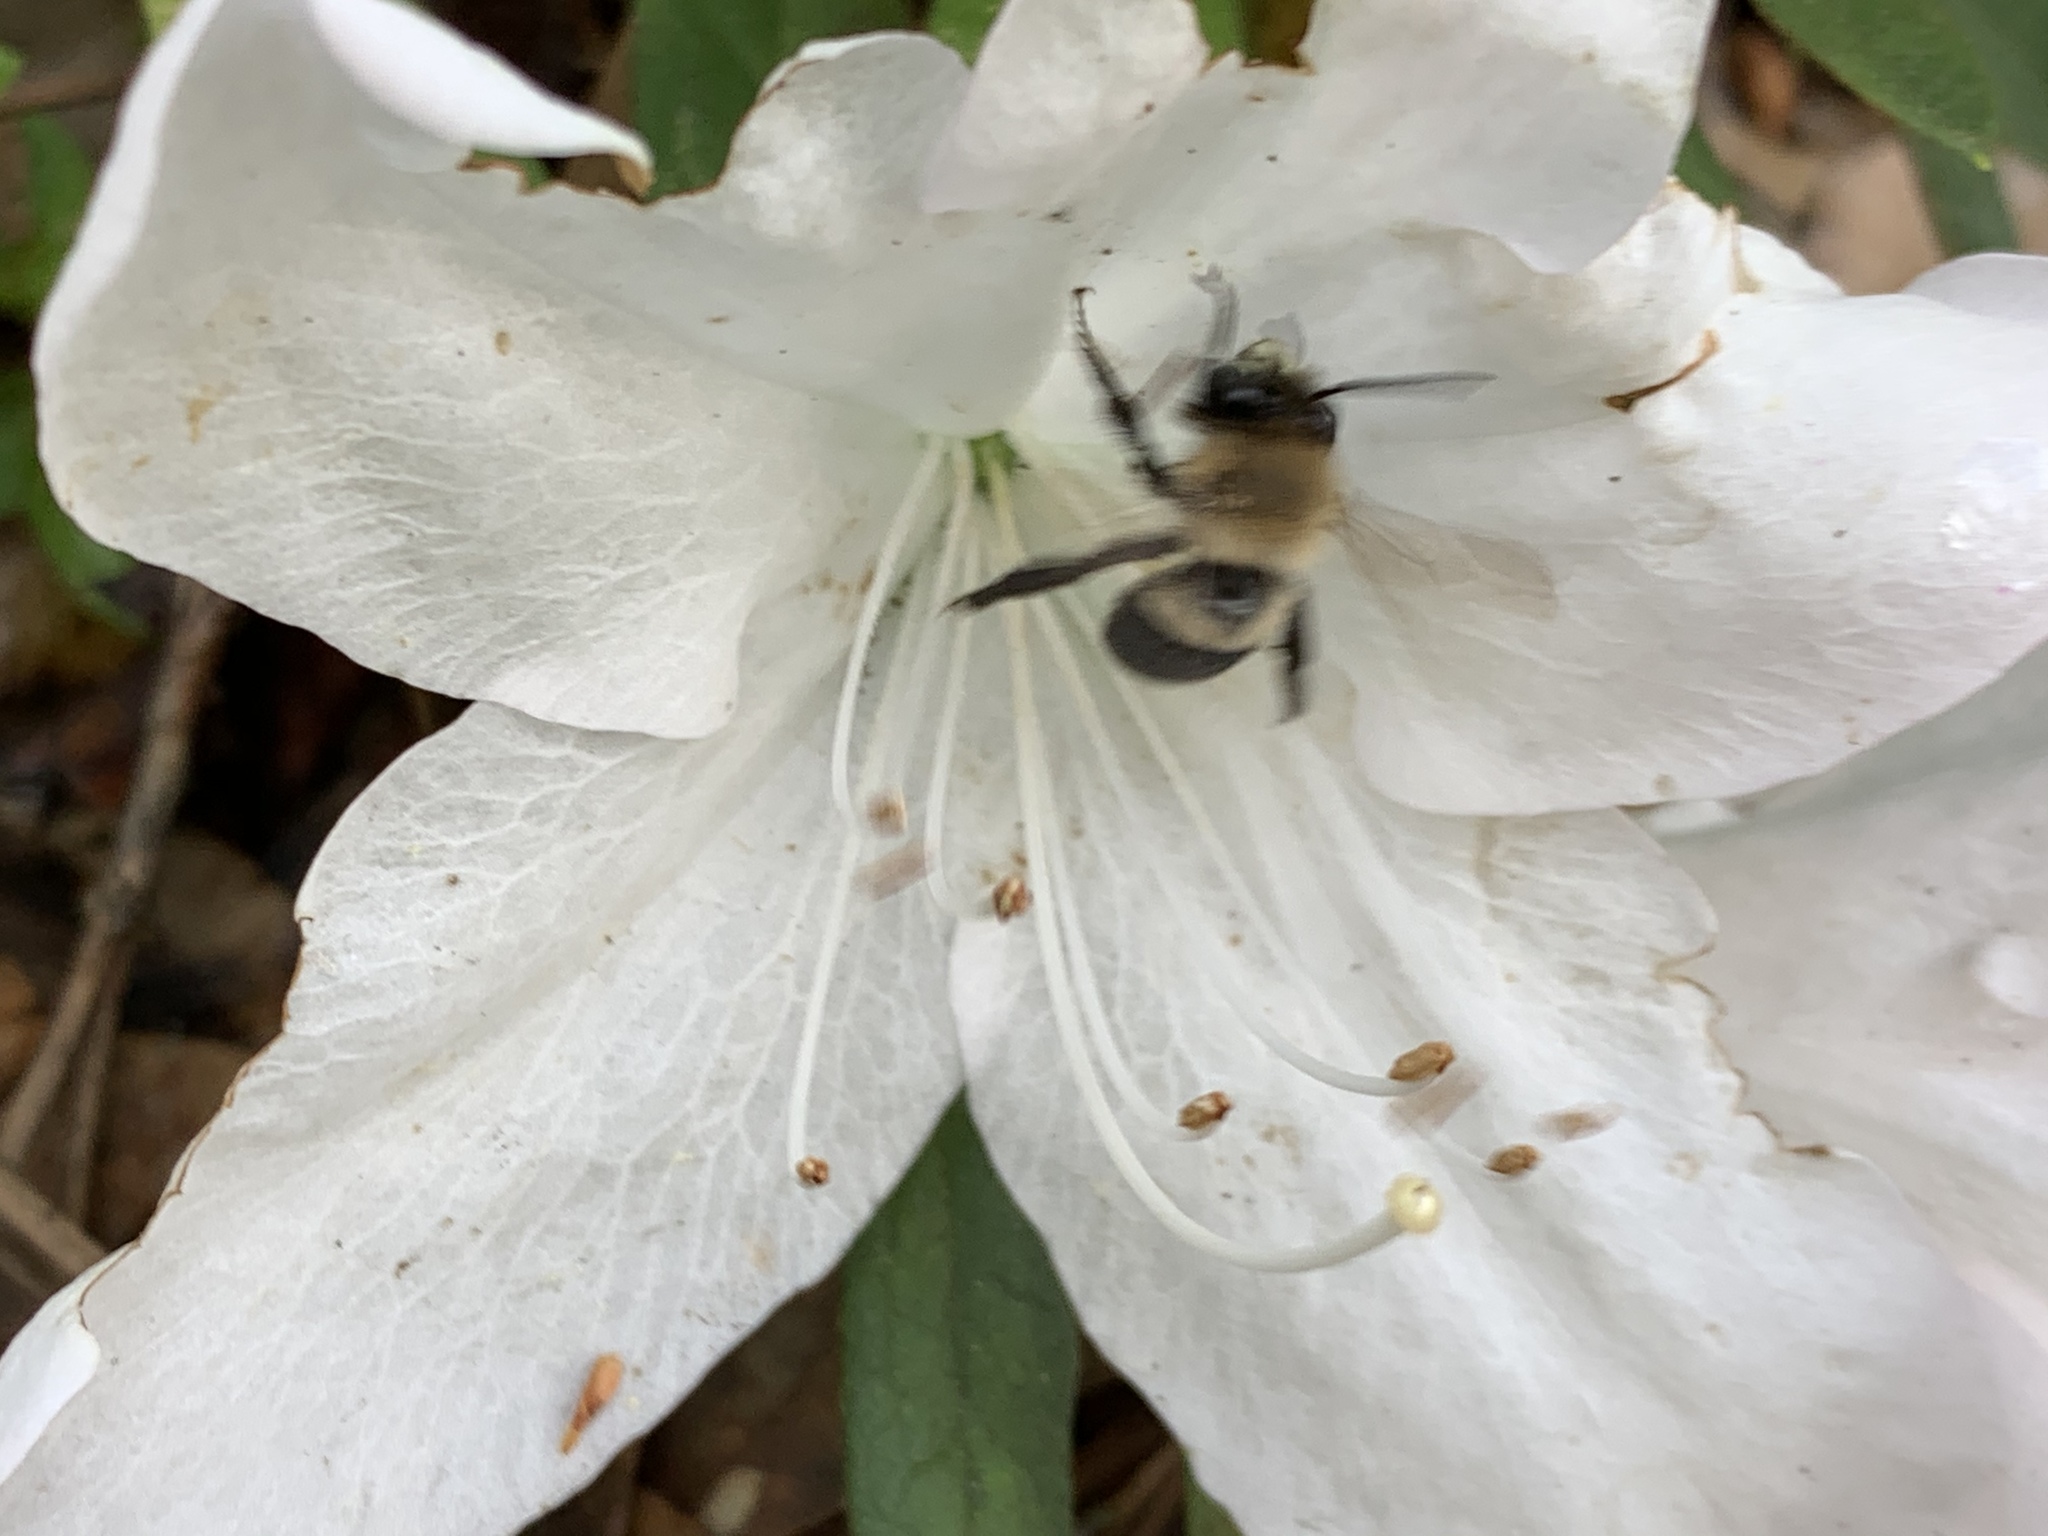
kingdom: Animalia
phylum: Arthropoda
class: Insecta
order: Hymenoptera
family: Apidae
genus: Habropoda
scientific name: Habropoda laboriosa
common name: Southeastern blueberry bee
